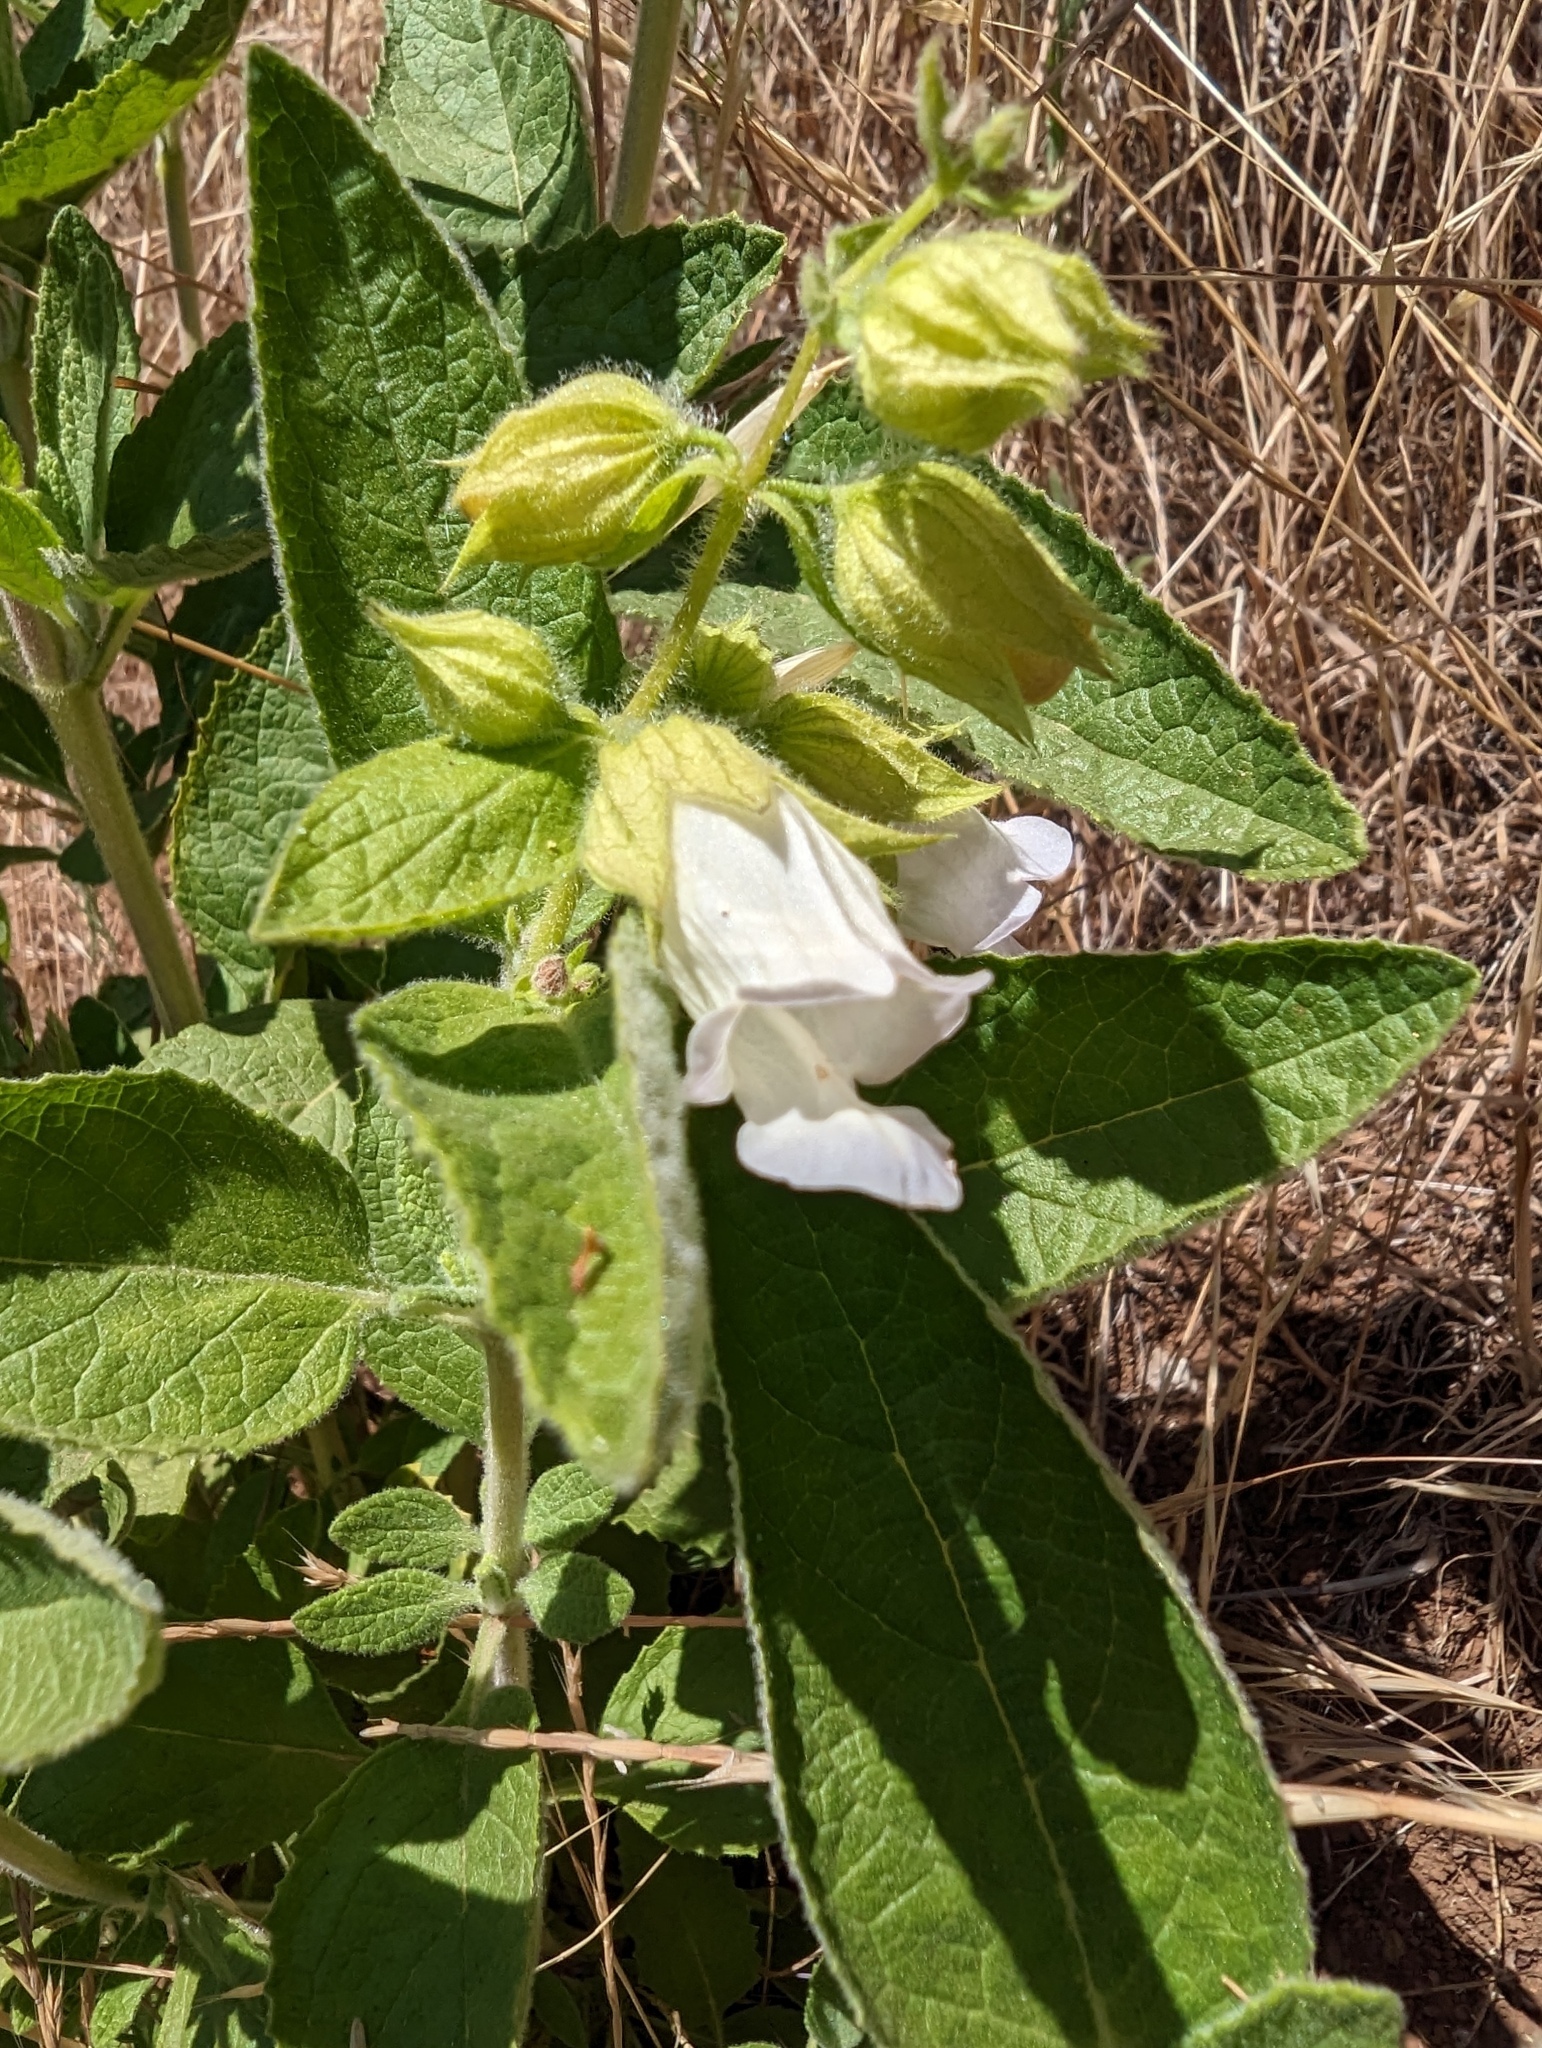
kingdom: Plantae
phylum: Tracheophyta
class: Magnoliopsida
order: Lamiales
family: Lamiaceae
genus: Lepechinia
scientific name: Lepechinia calycina
